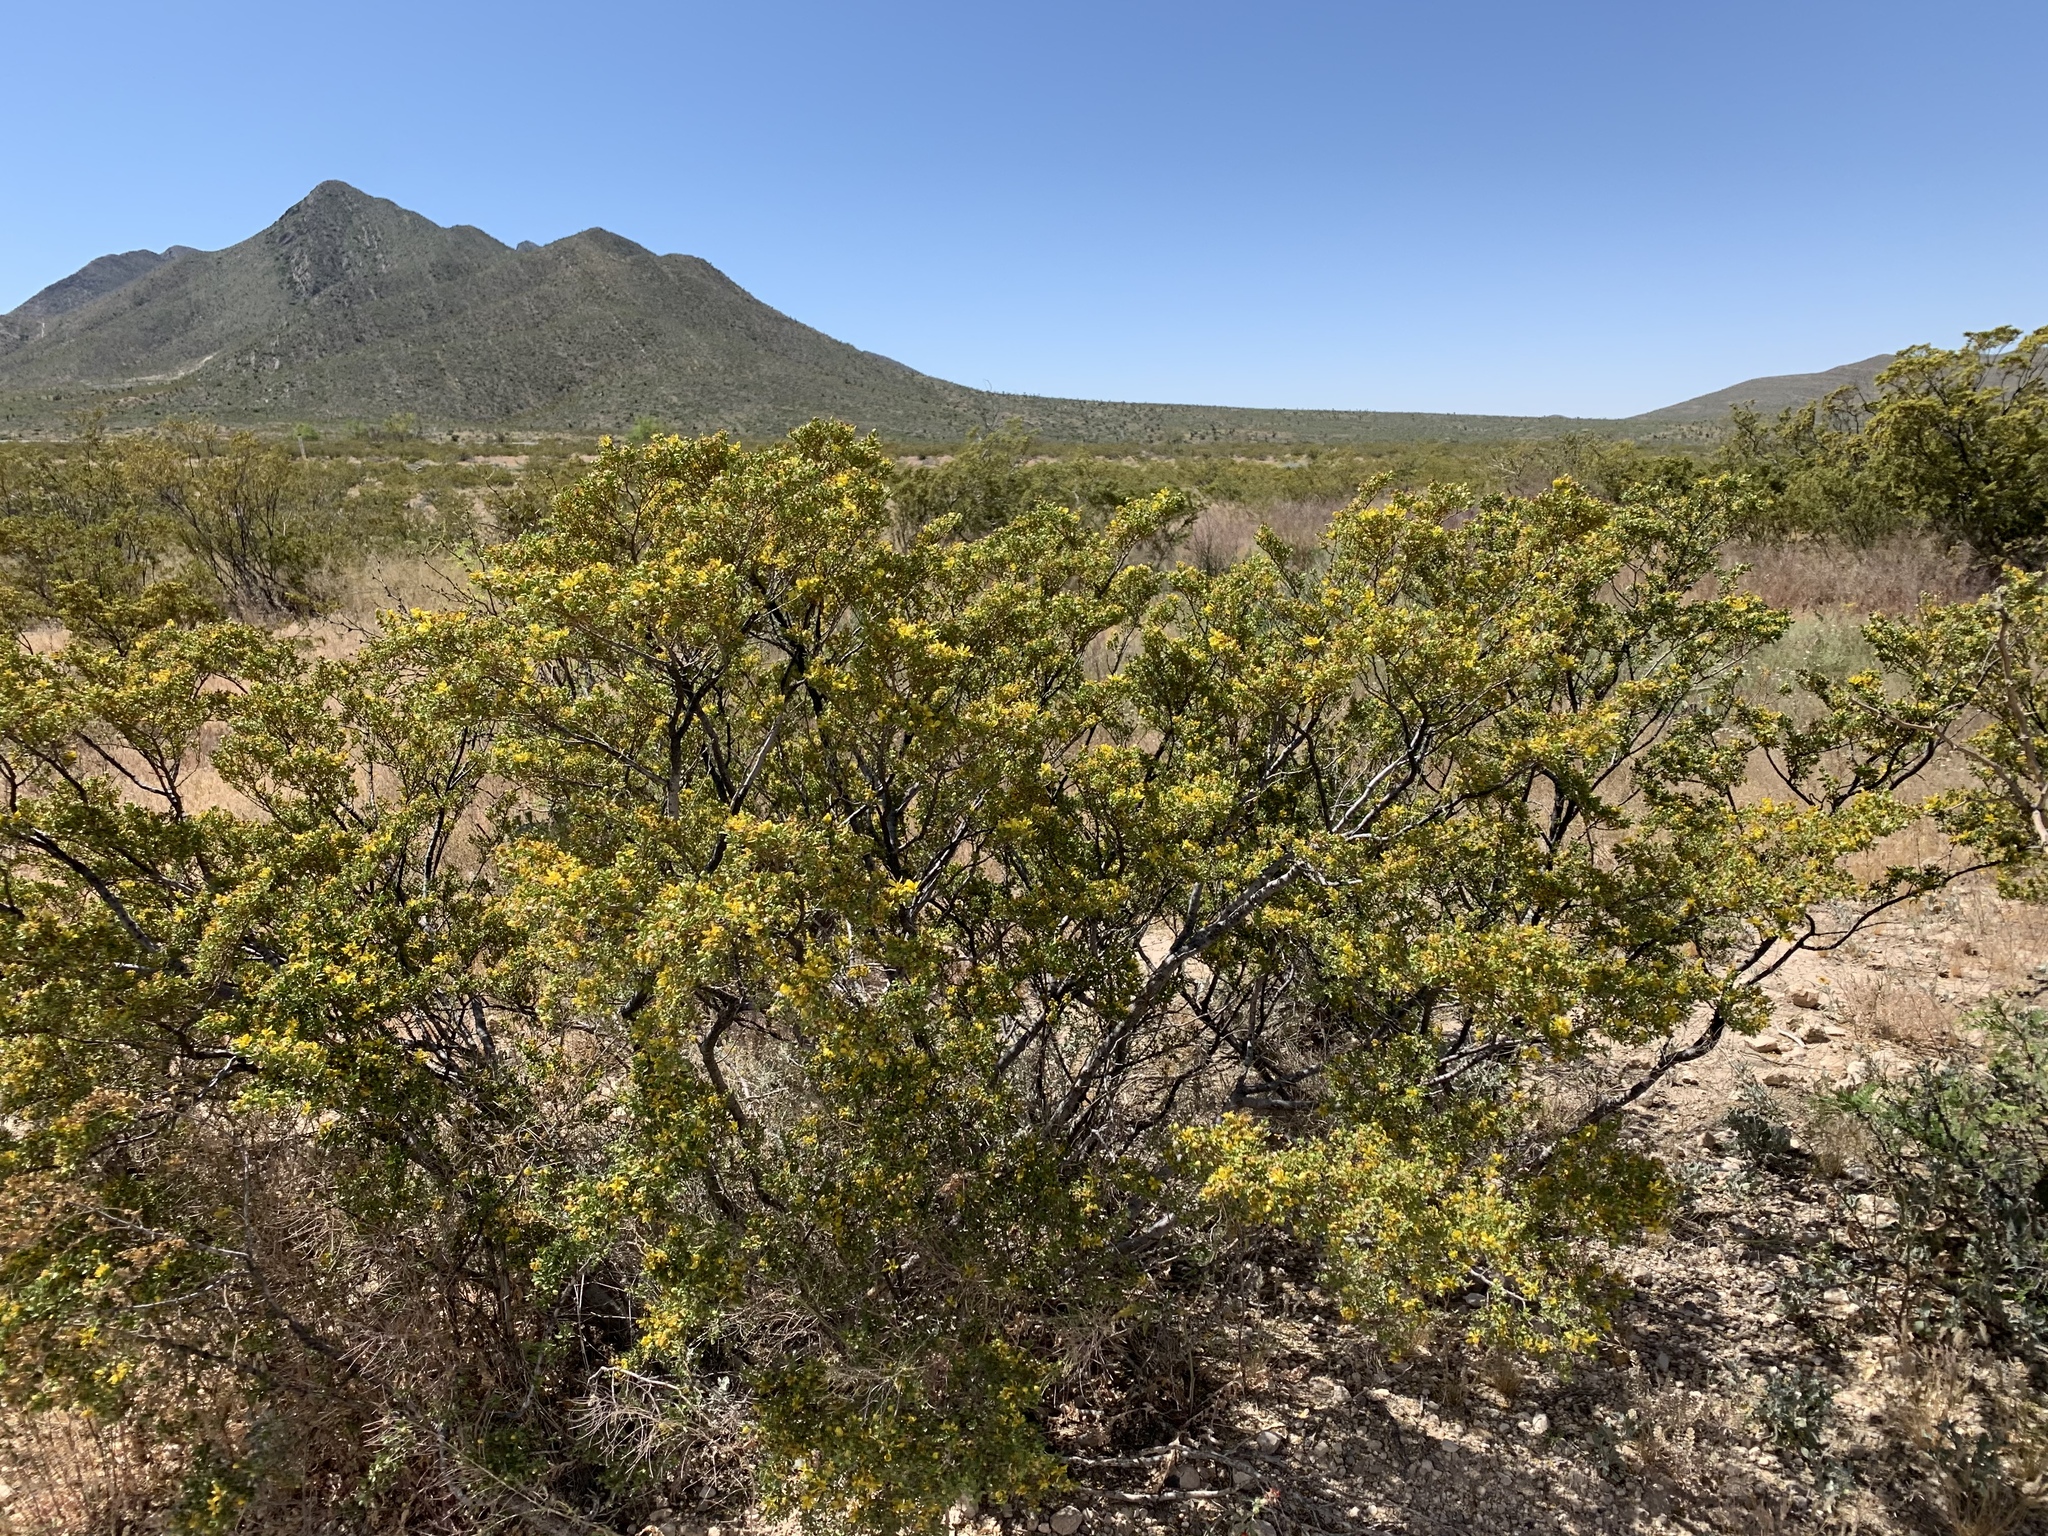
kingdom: Plantae
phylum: Tracheophyta
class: Magnoliopsida
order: Zygophyllales
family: Zygophyllaceae
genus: Larrea
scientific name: Larrea tridentata
